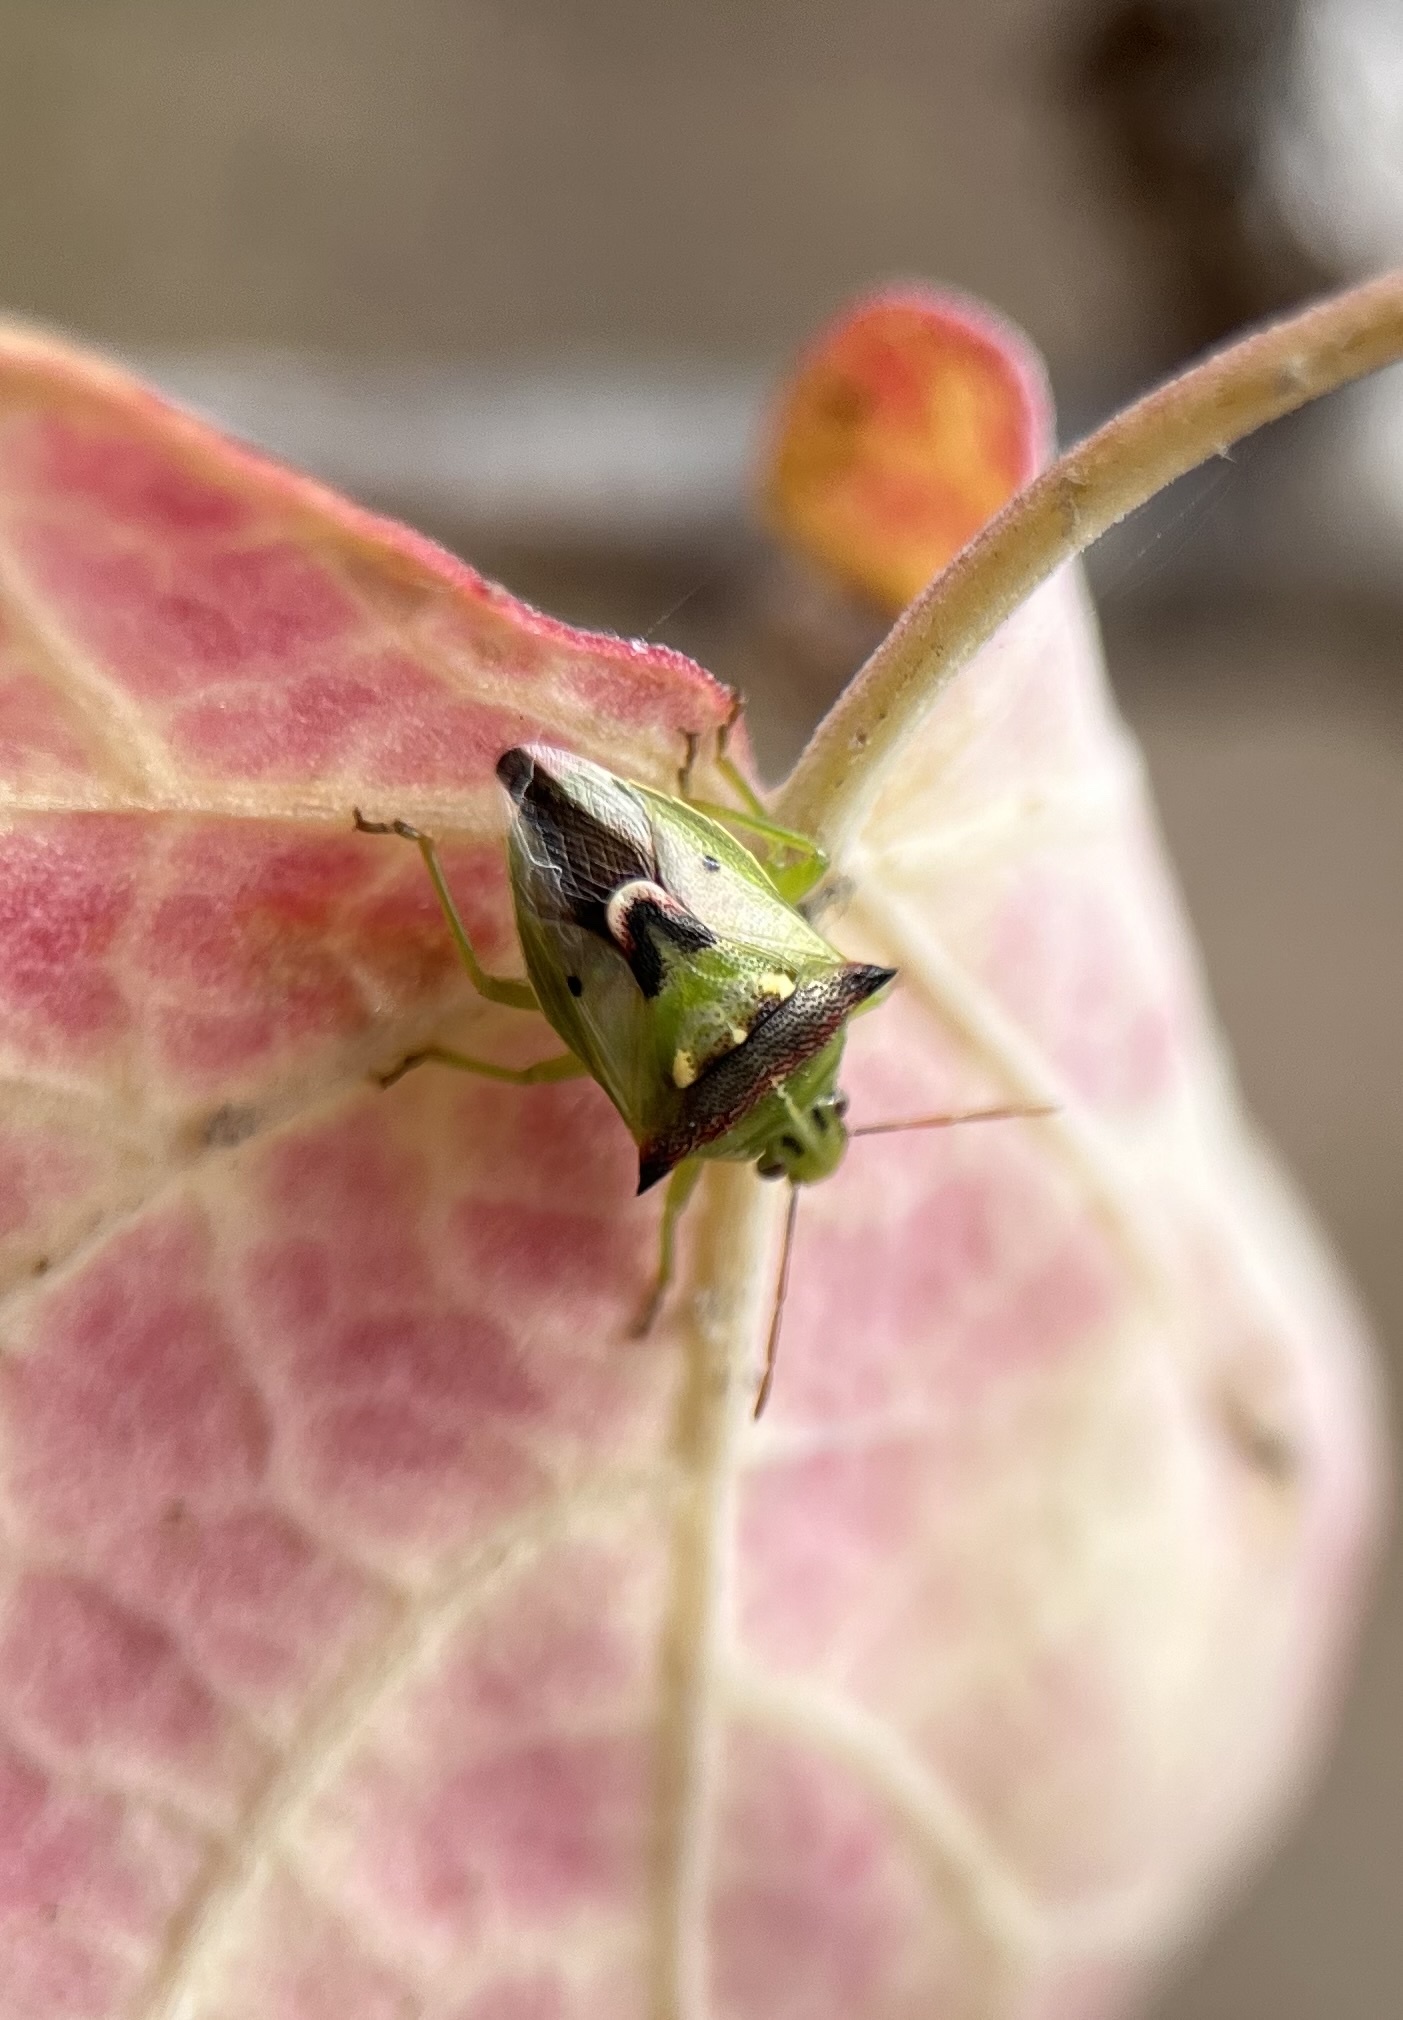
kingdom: Animalia
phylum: Arthropoda
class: Insecta
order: Hemiptera
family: Pentatomidae
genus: Tylospilus
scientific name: Tylospilus acutissimus
